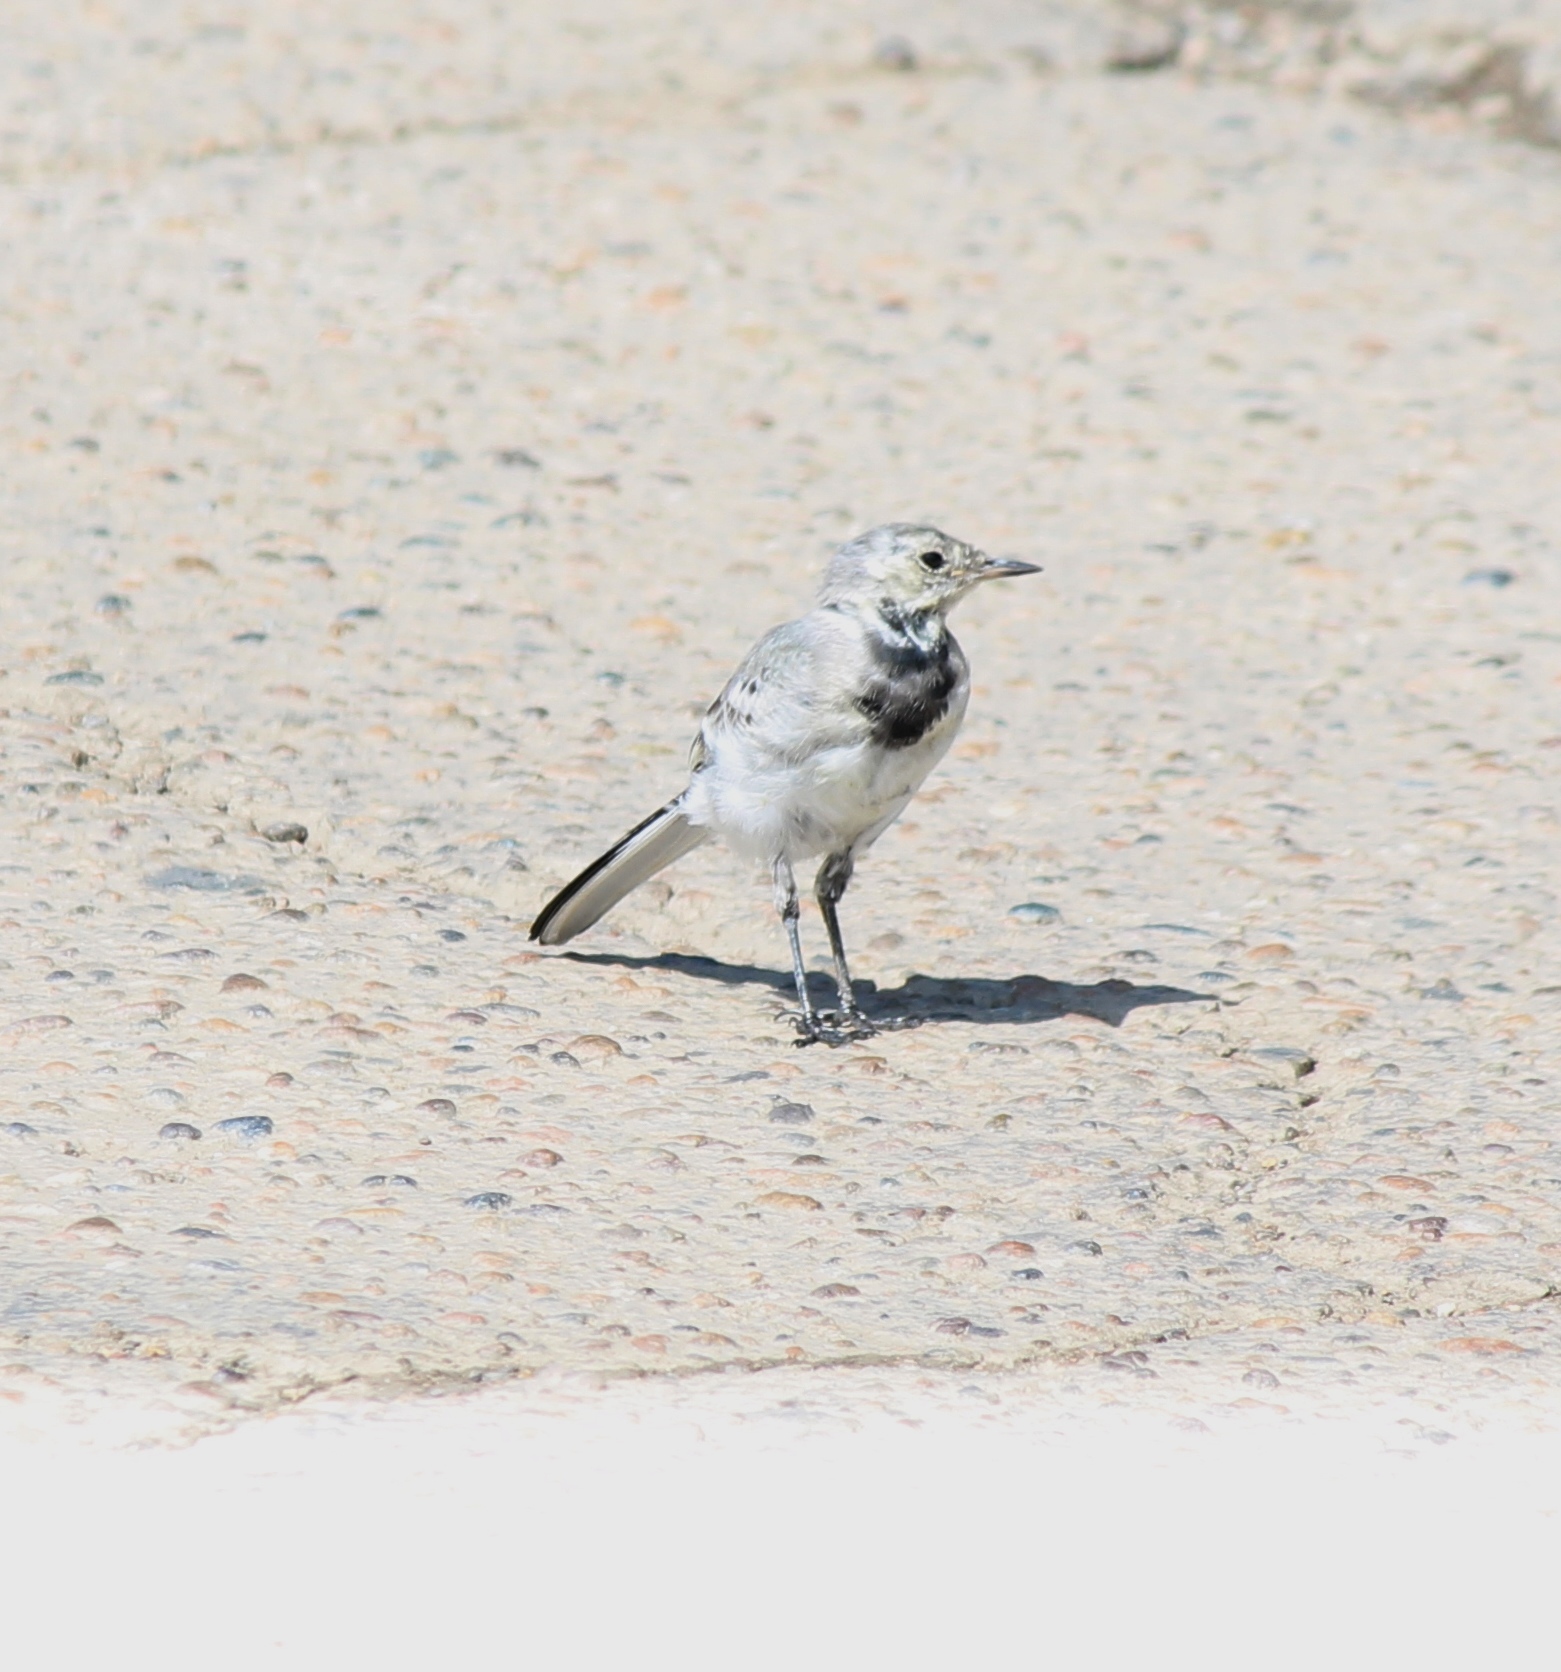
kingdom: Animalia
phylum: Chordata
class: Aves
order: Passeriformes
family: Motacillidae
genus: Motacilla
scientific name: Motacilla alba
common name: White wagtail
